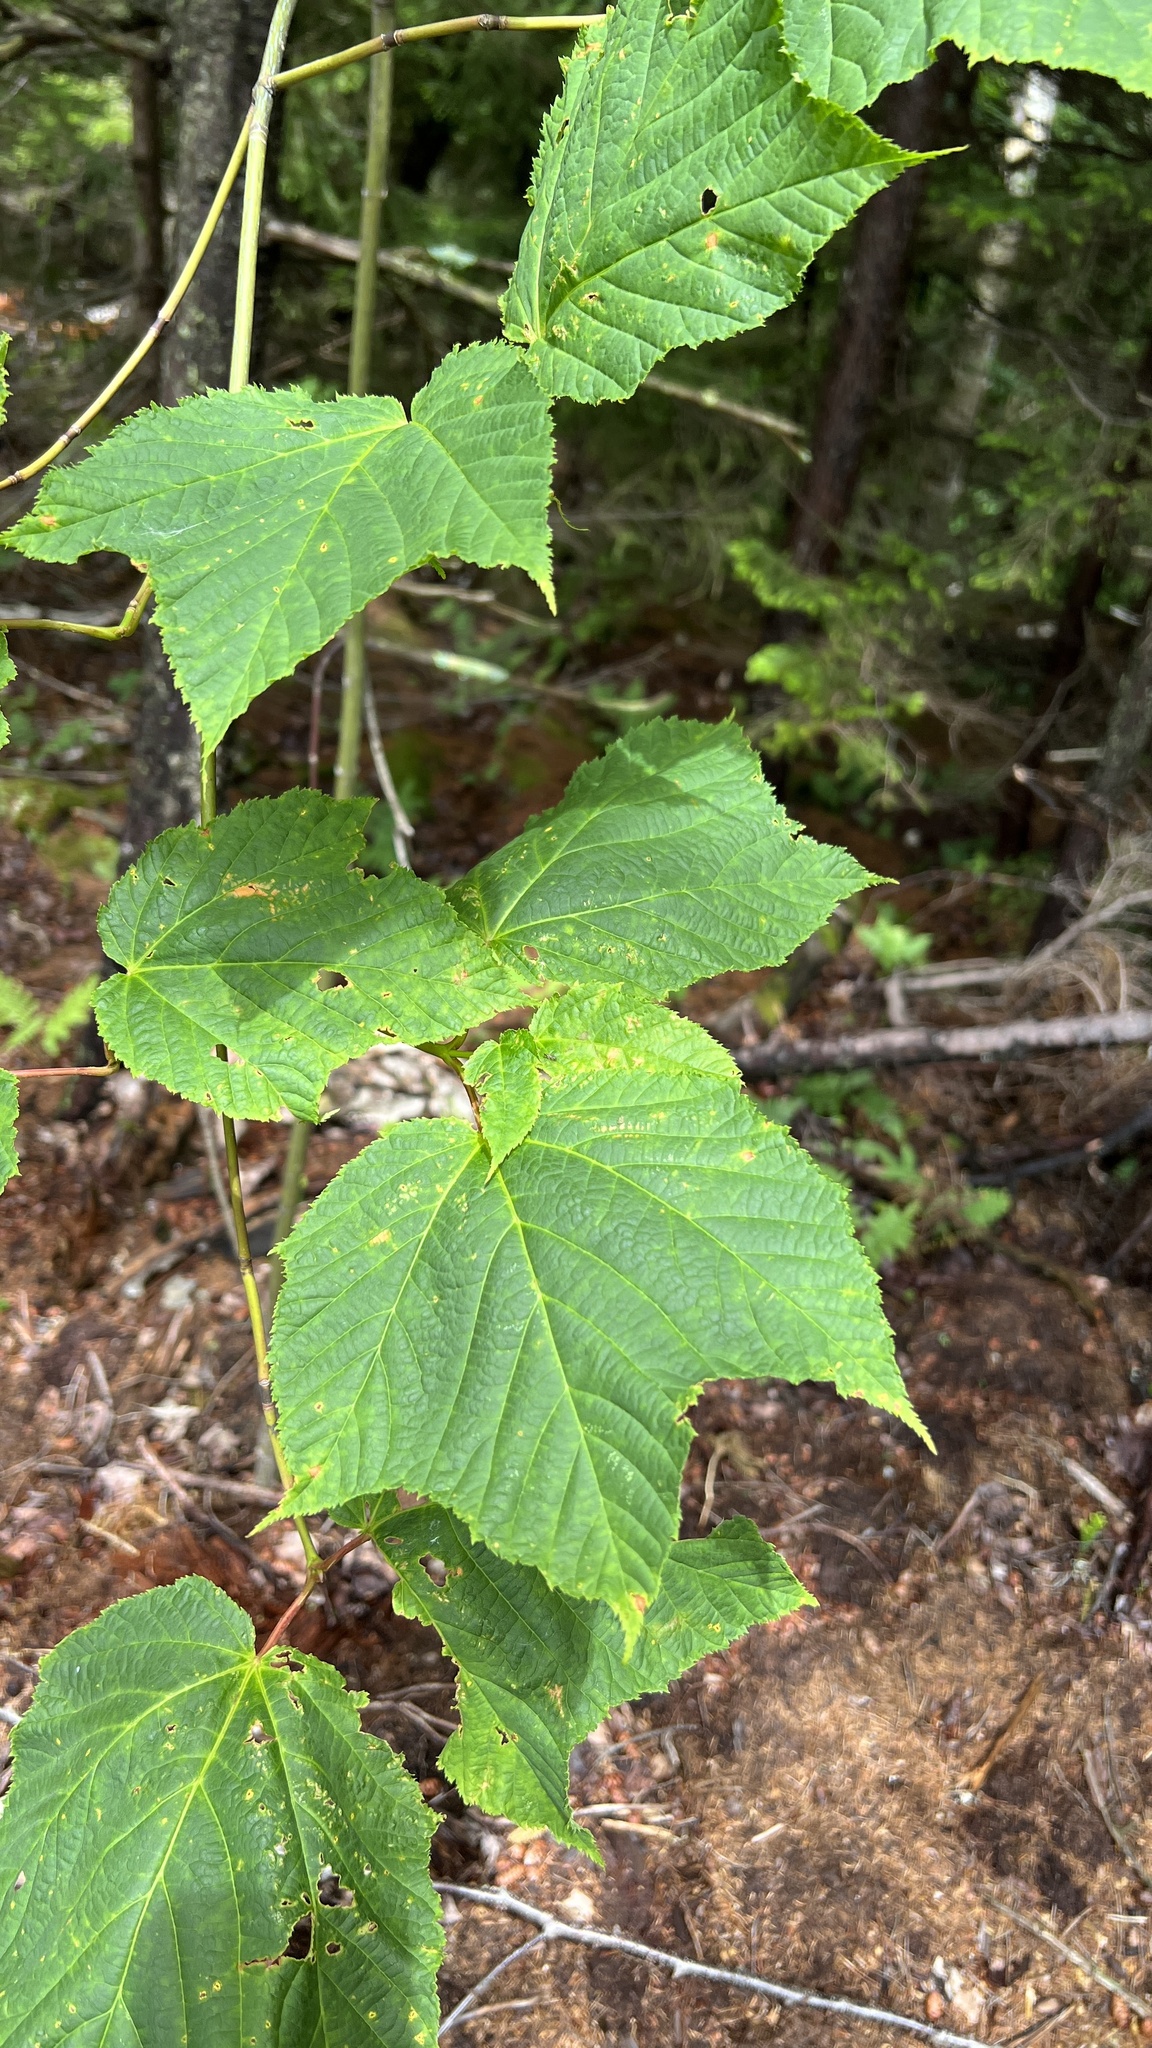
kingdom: Plantae
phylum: Tracheophyta
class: Magnoliopsida
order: Sapindales
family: Sapindaceae
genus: Acer
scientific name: Acer pensylvanicum
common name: Moosewood
